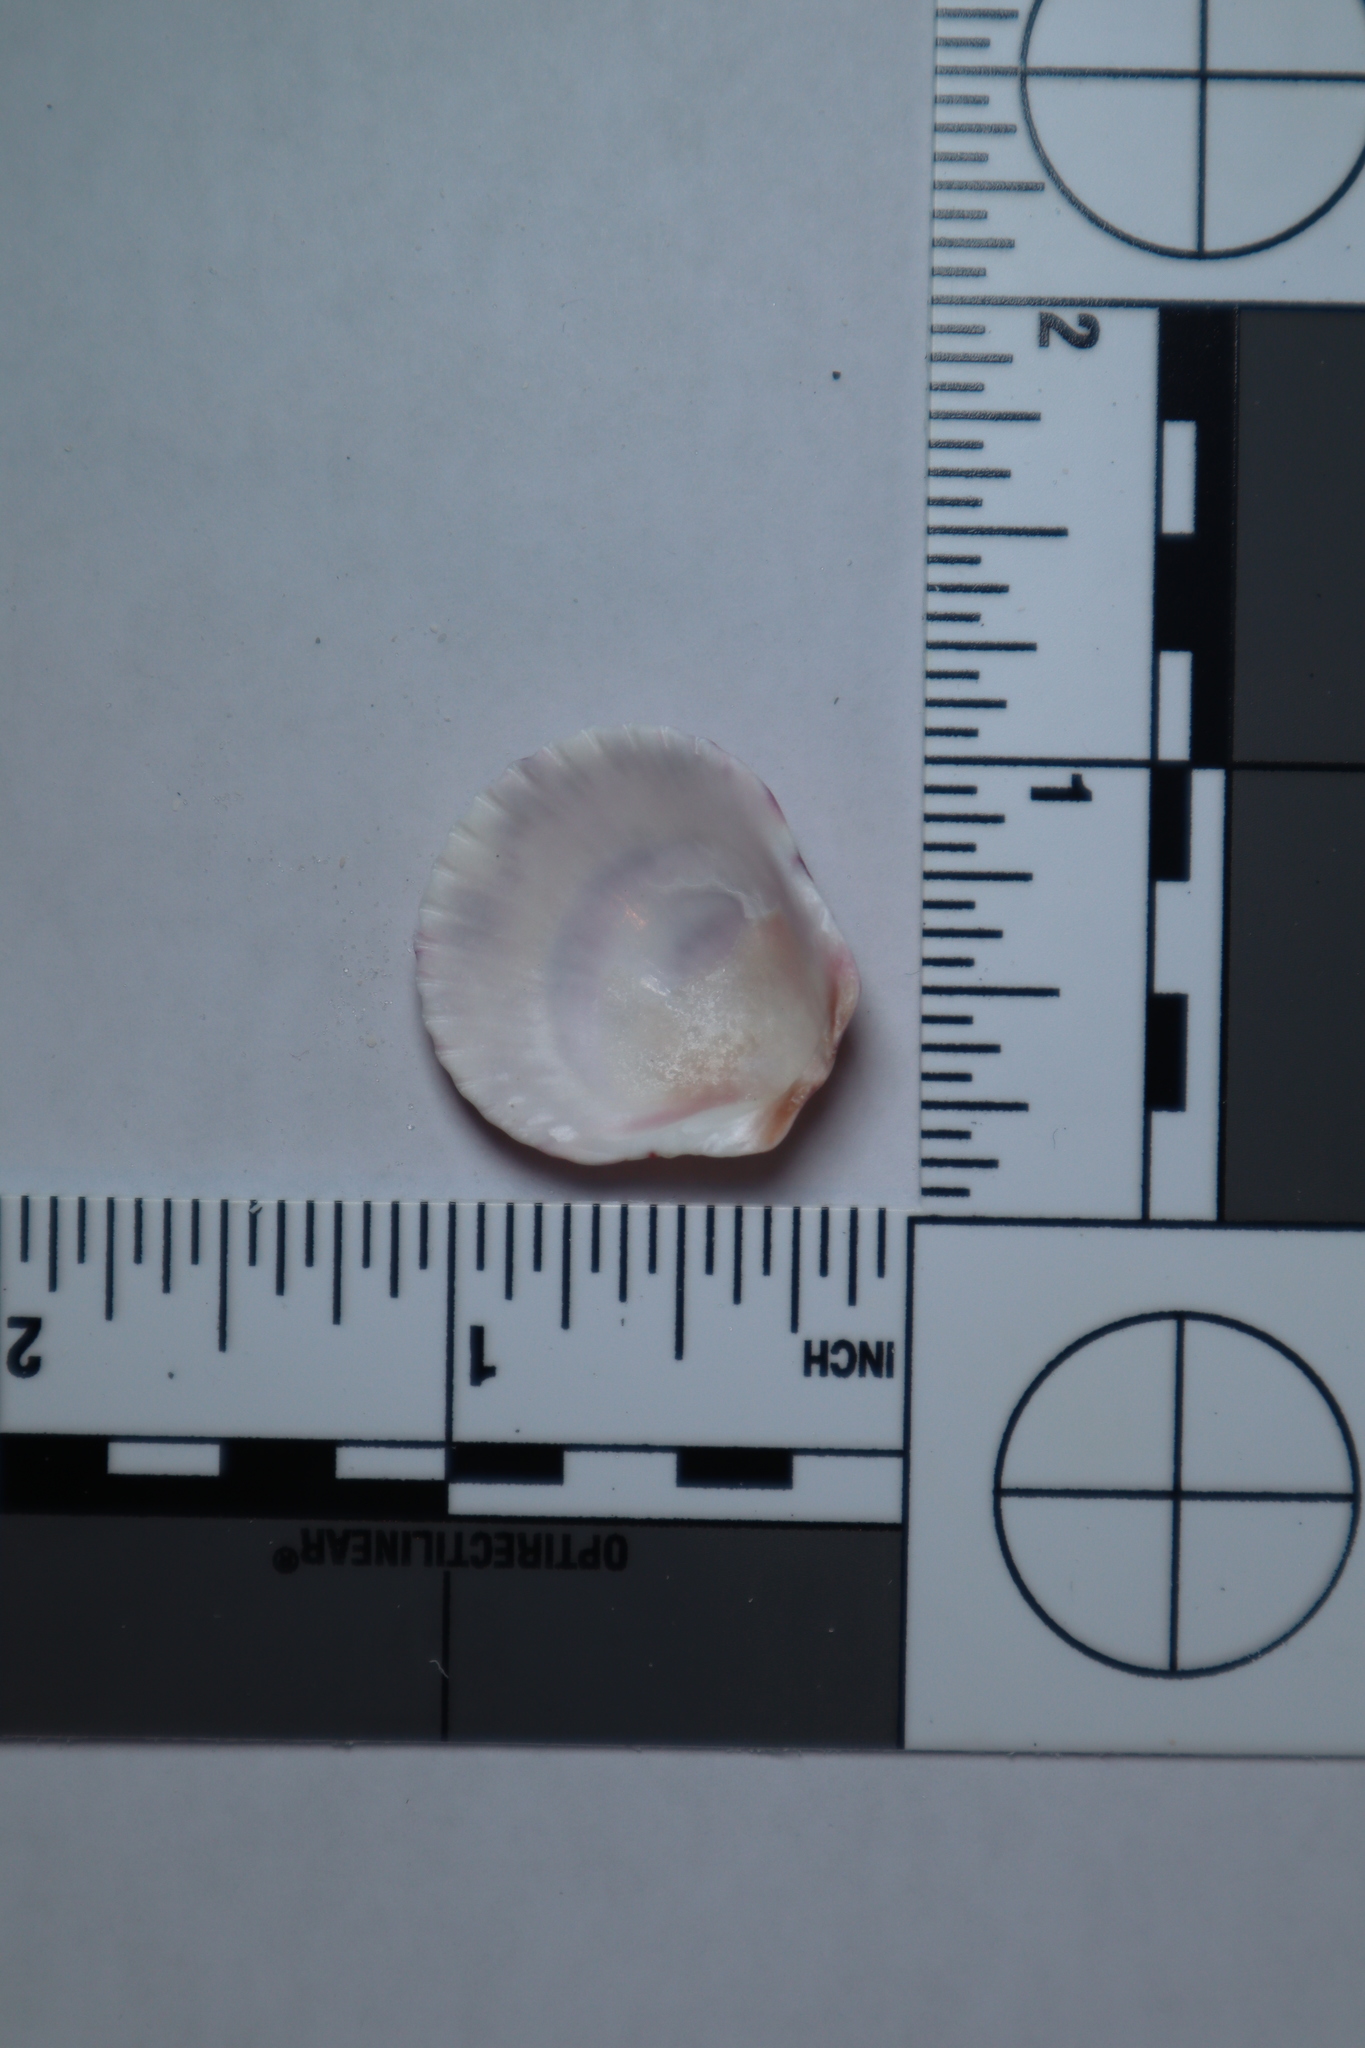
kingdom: Animalia
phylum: Mollusca
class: Bivalvia
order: Pectinida
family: Pectinidae
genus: Argopecten
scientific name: Argopecten gibbus
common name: Atlantic calico scallop
